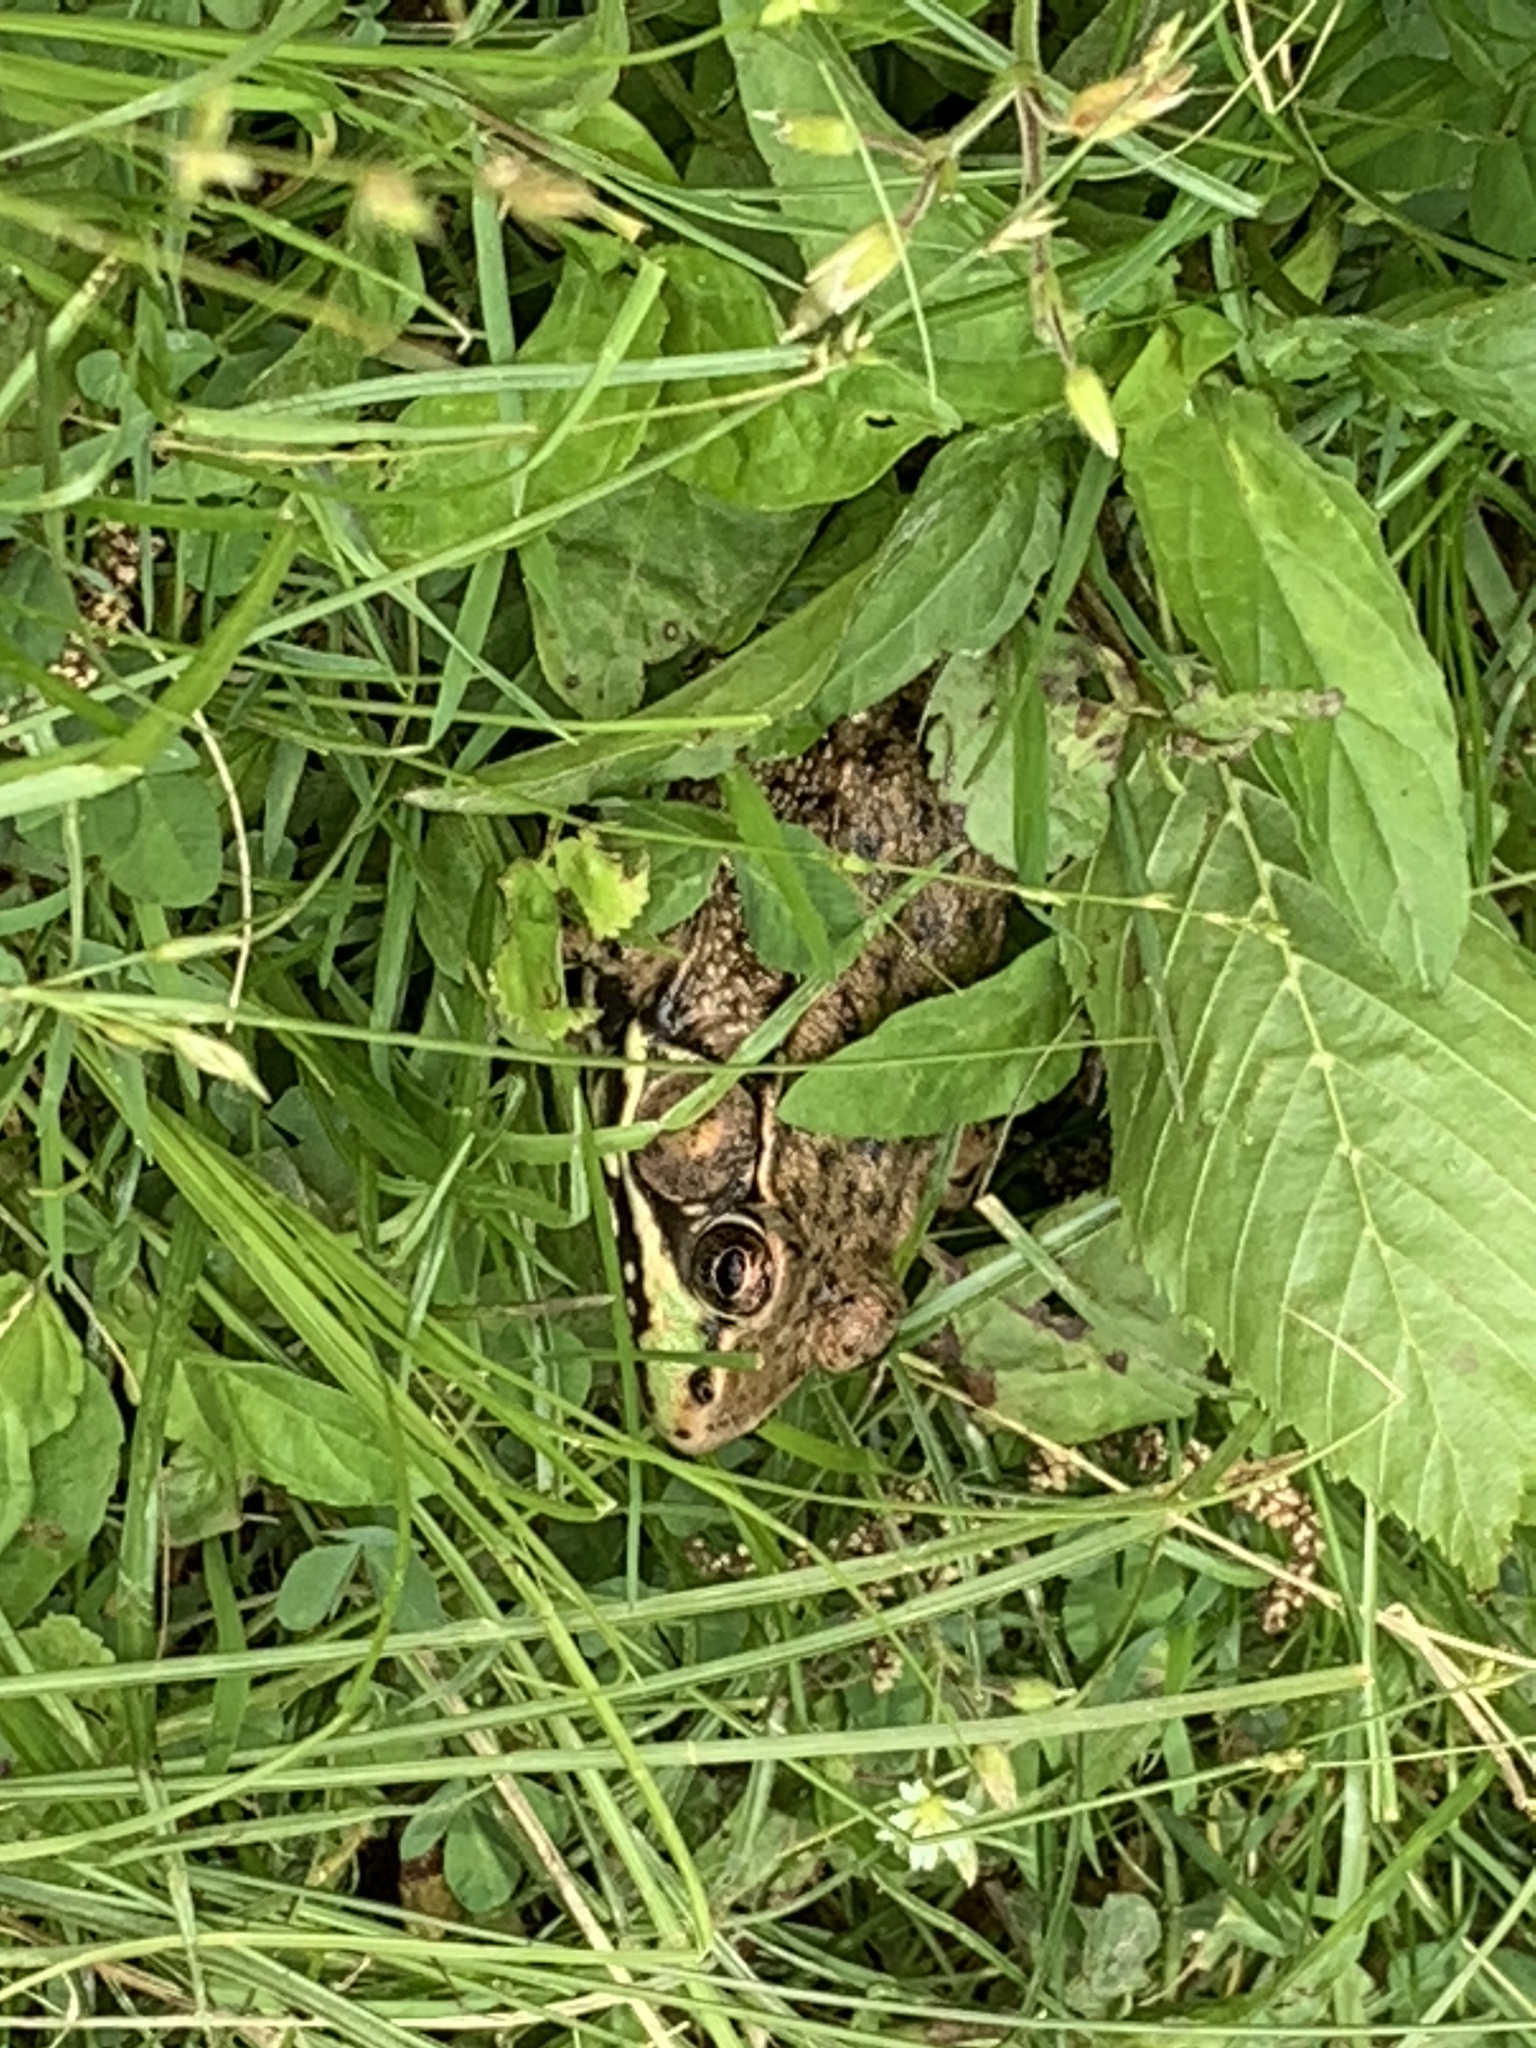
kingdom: Animalia
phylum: Chordata
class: Amphibia
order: Anura
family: Ranidae
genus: Lithobates
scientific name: Lithobates clamitans
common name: Green frog
